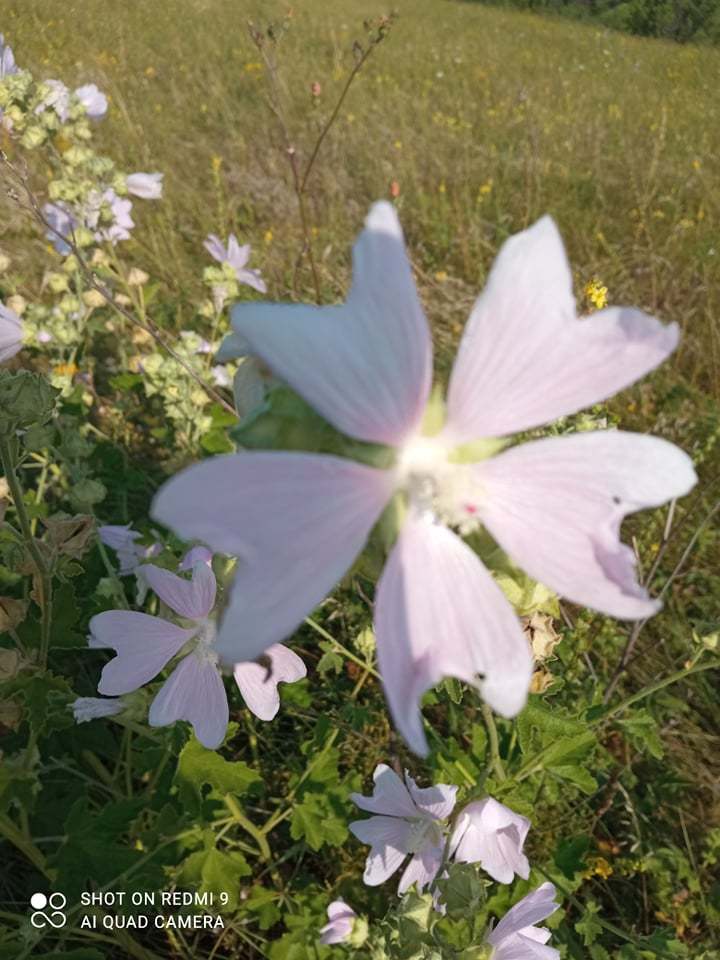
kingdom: Plantae
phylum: Tracheophyta
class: Magnoliopsida
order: Malvales
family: Malvaceae
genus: Malva
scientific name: Malva thuringiaca
